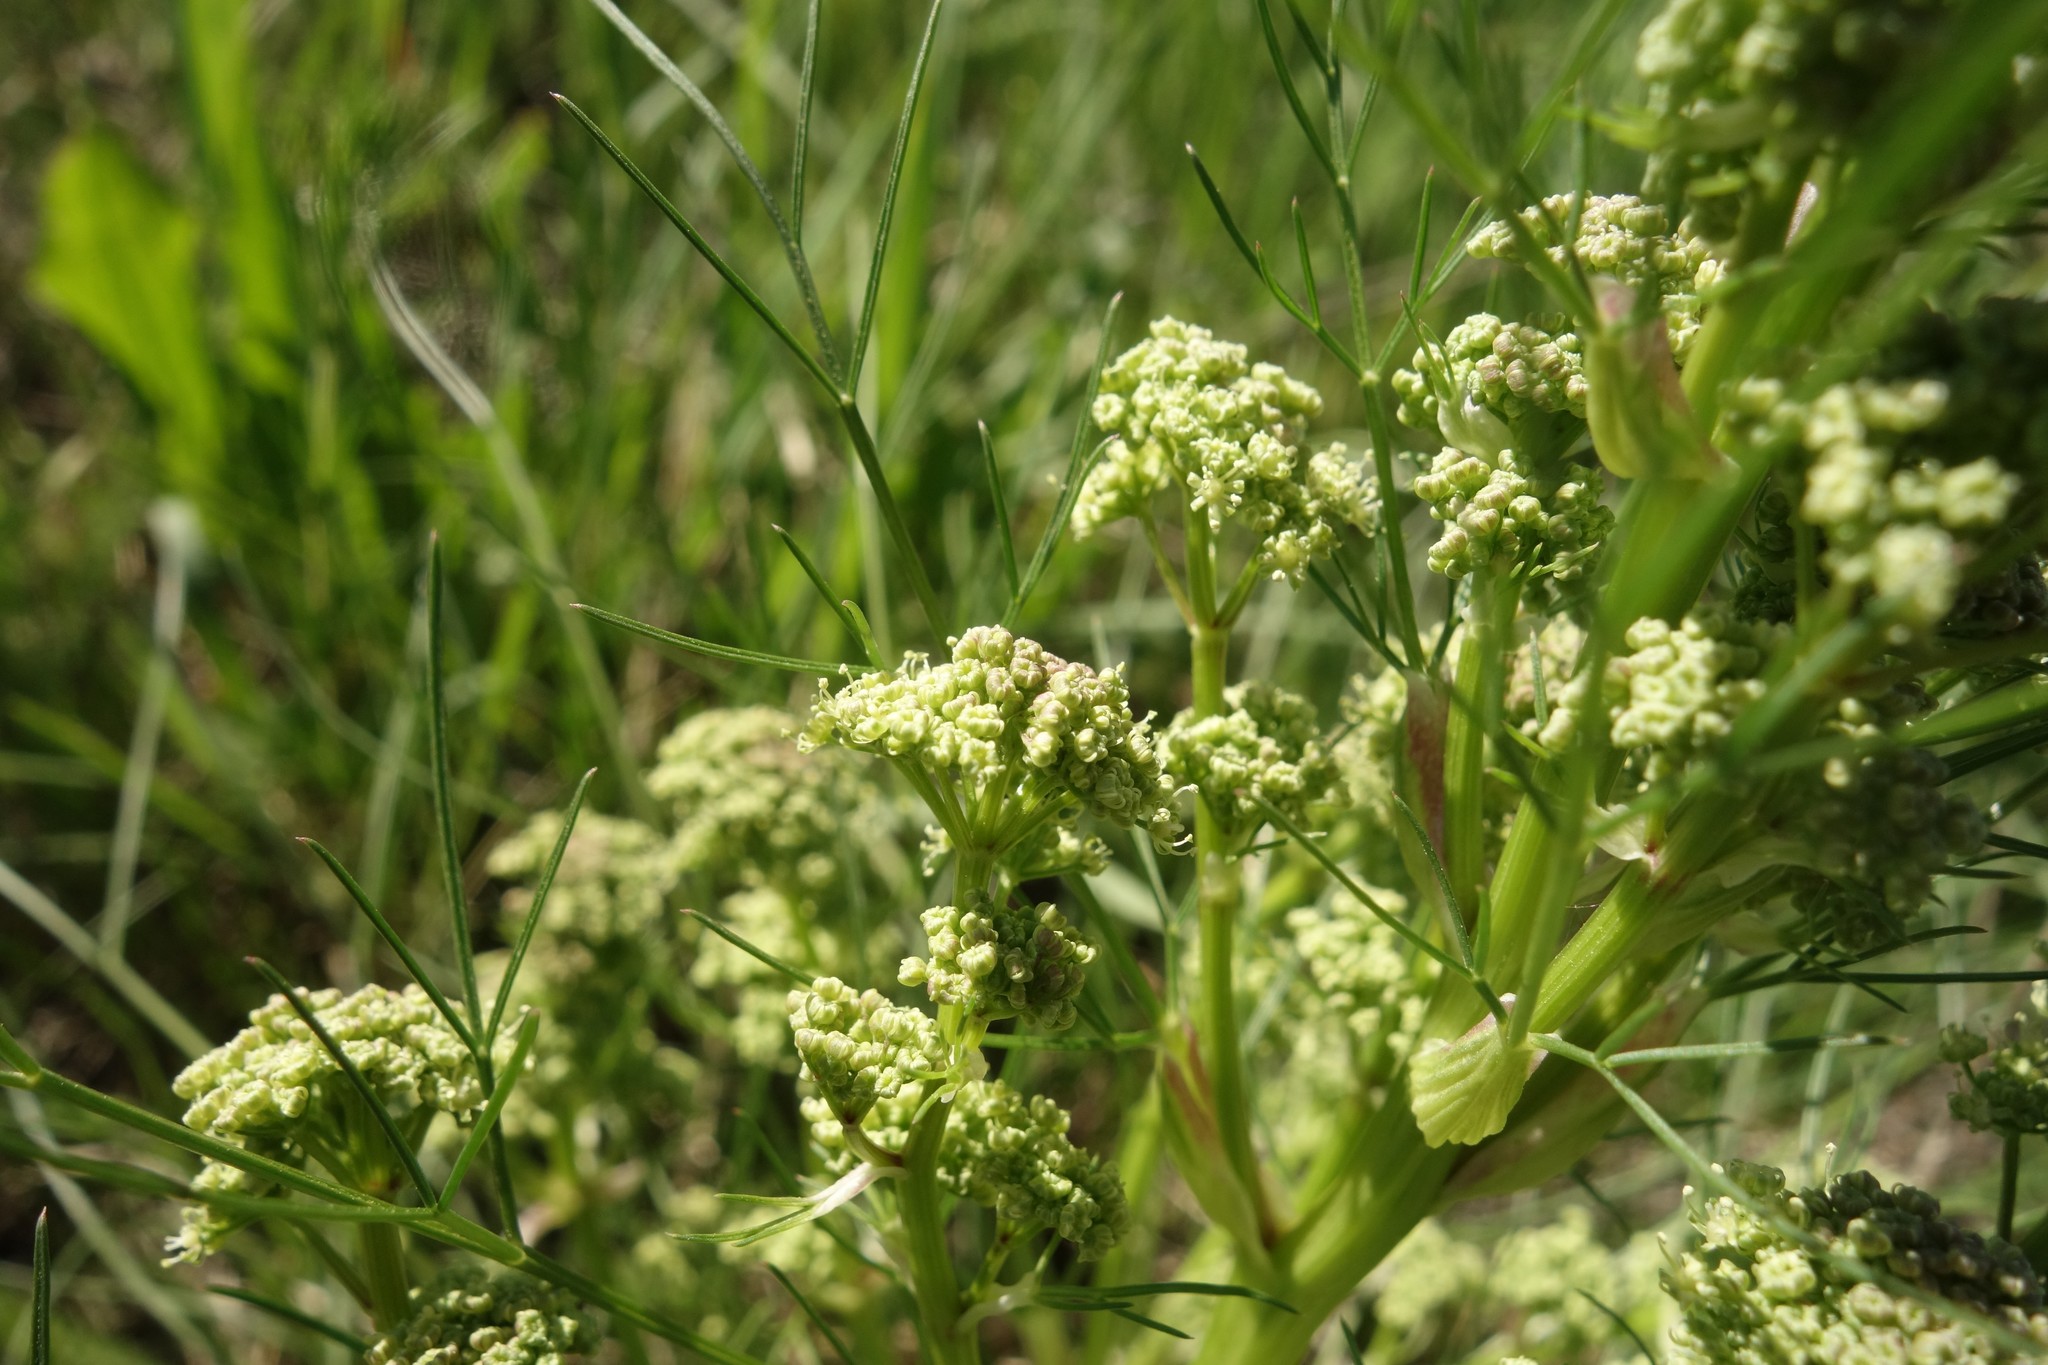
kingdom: Plantae
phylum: Tracheophyta
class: Magnoliopsida
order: Apiales
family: Apiaceae
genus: Trinia
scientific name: Trinia multicaulis
